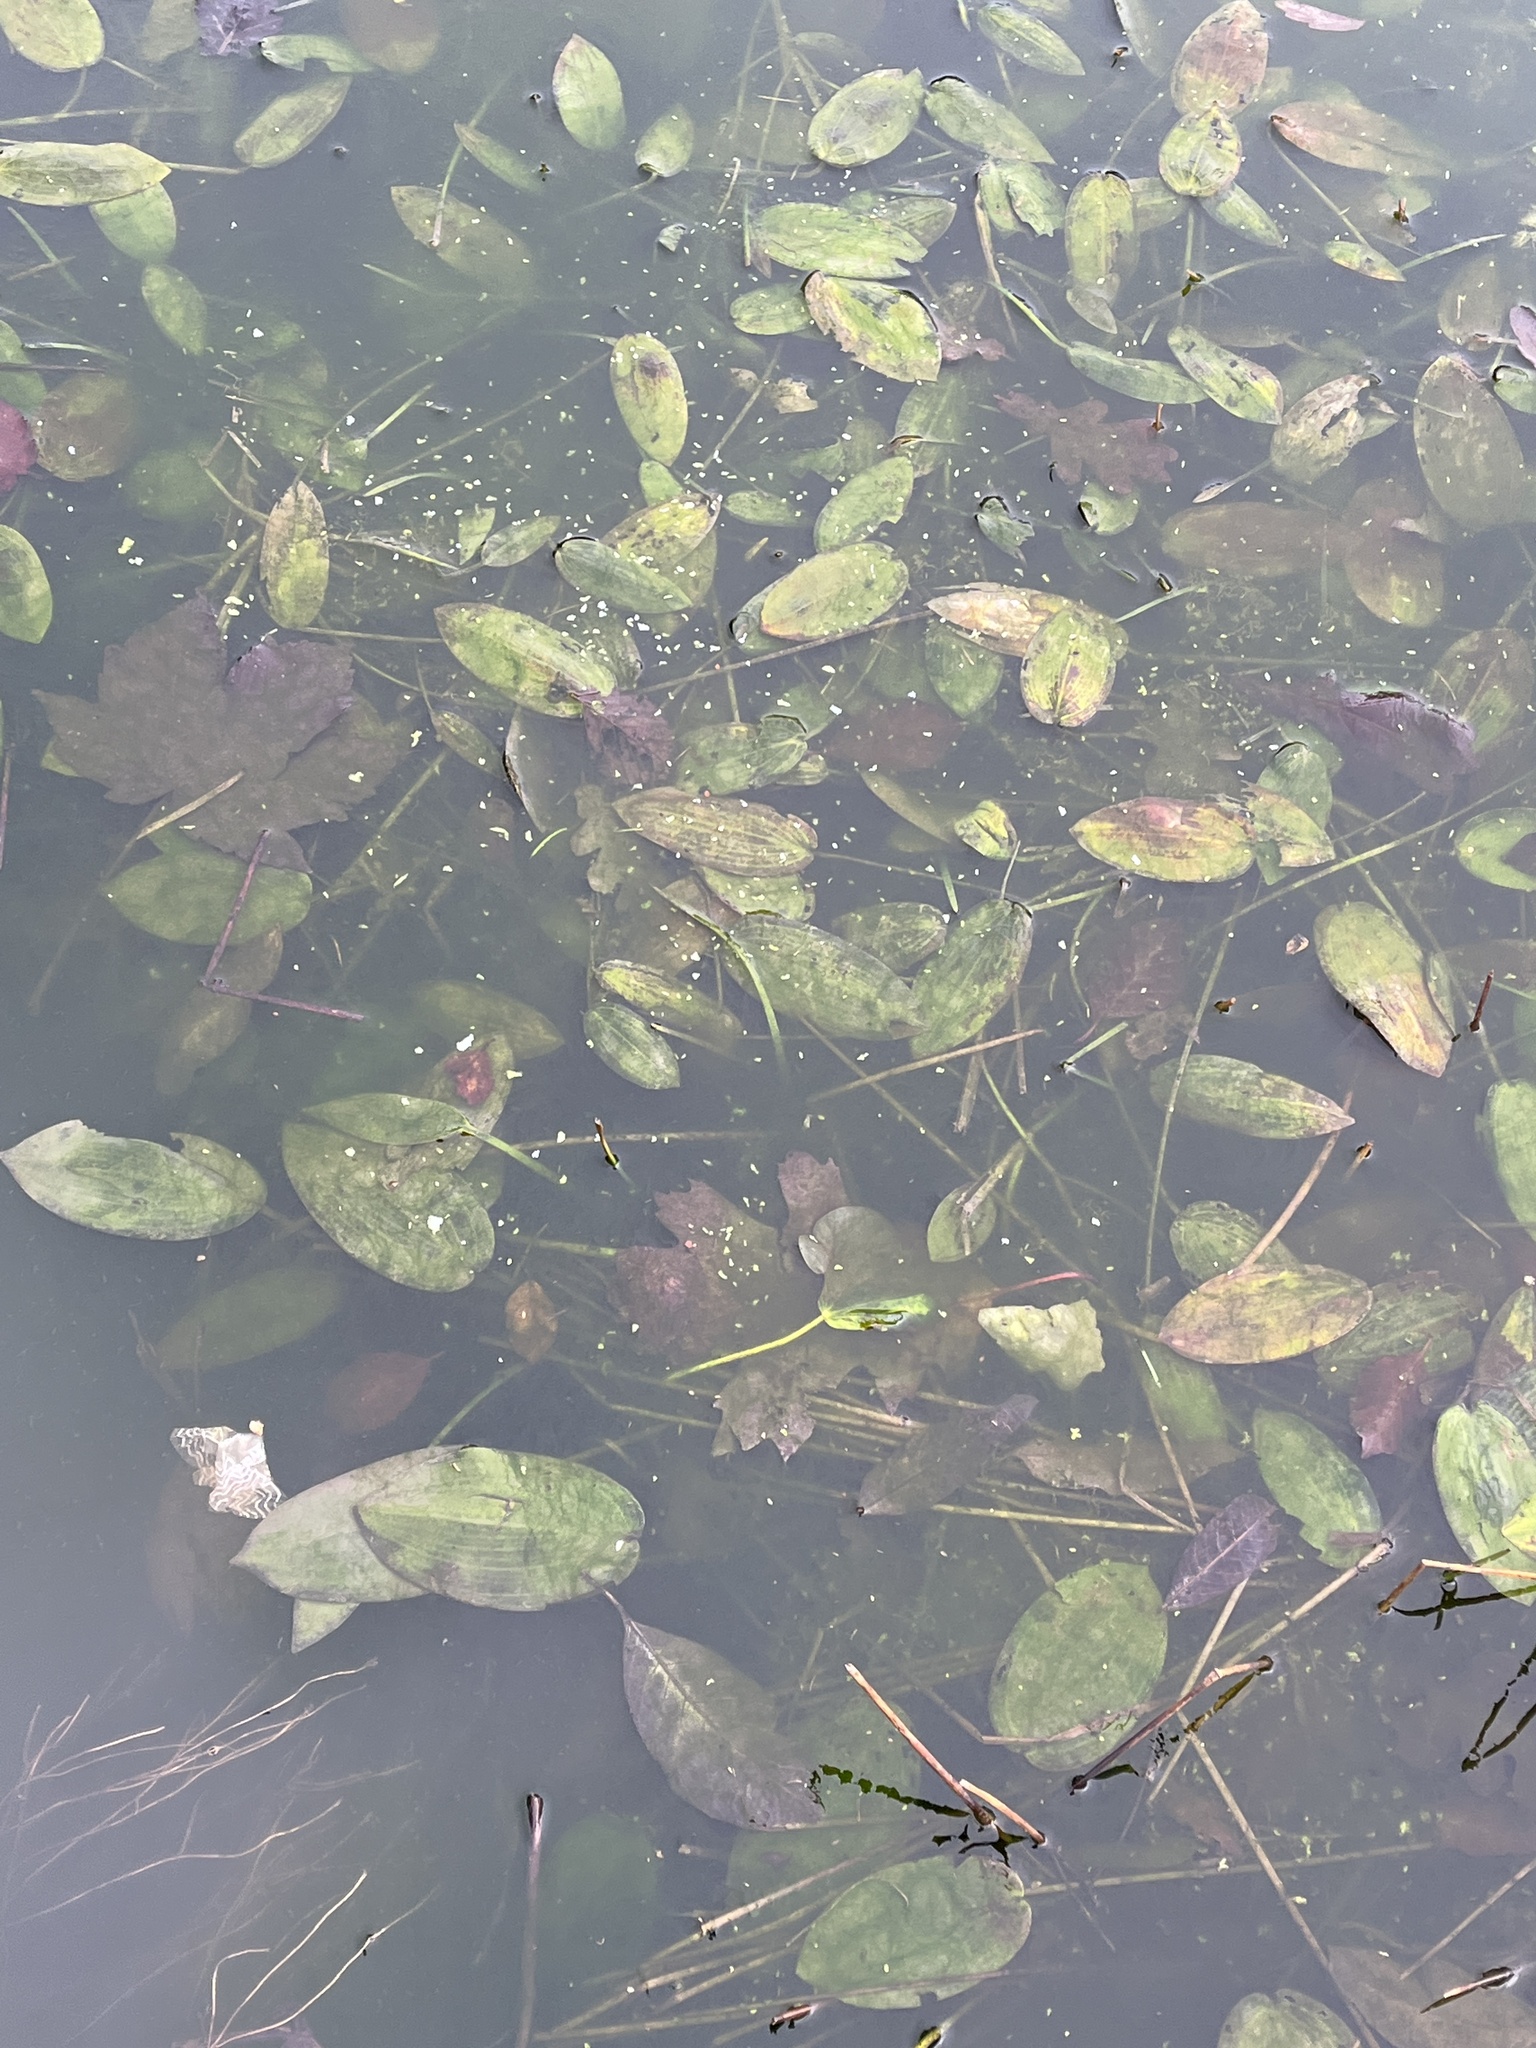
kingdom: Plantae
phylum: Tracheophyta
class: Liliopsida
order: Alismatales
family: Potamogetonaceae
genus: Potamogeton
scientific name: Potamogeton natans
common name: Broad-leaved pondweed
